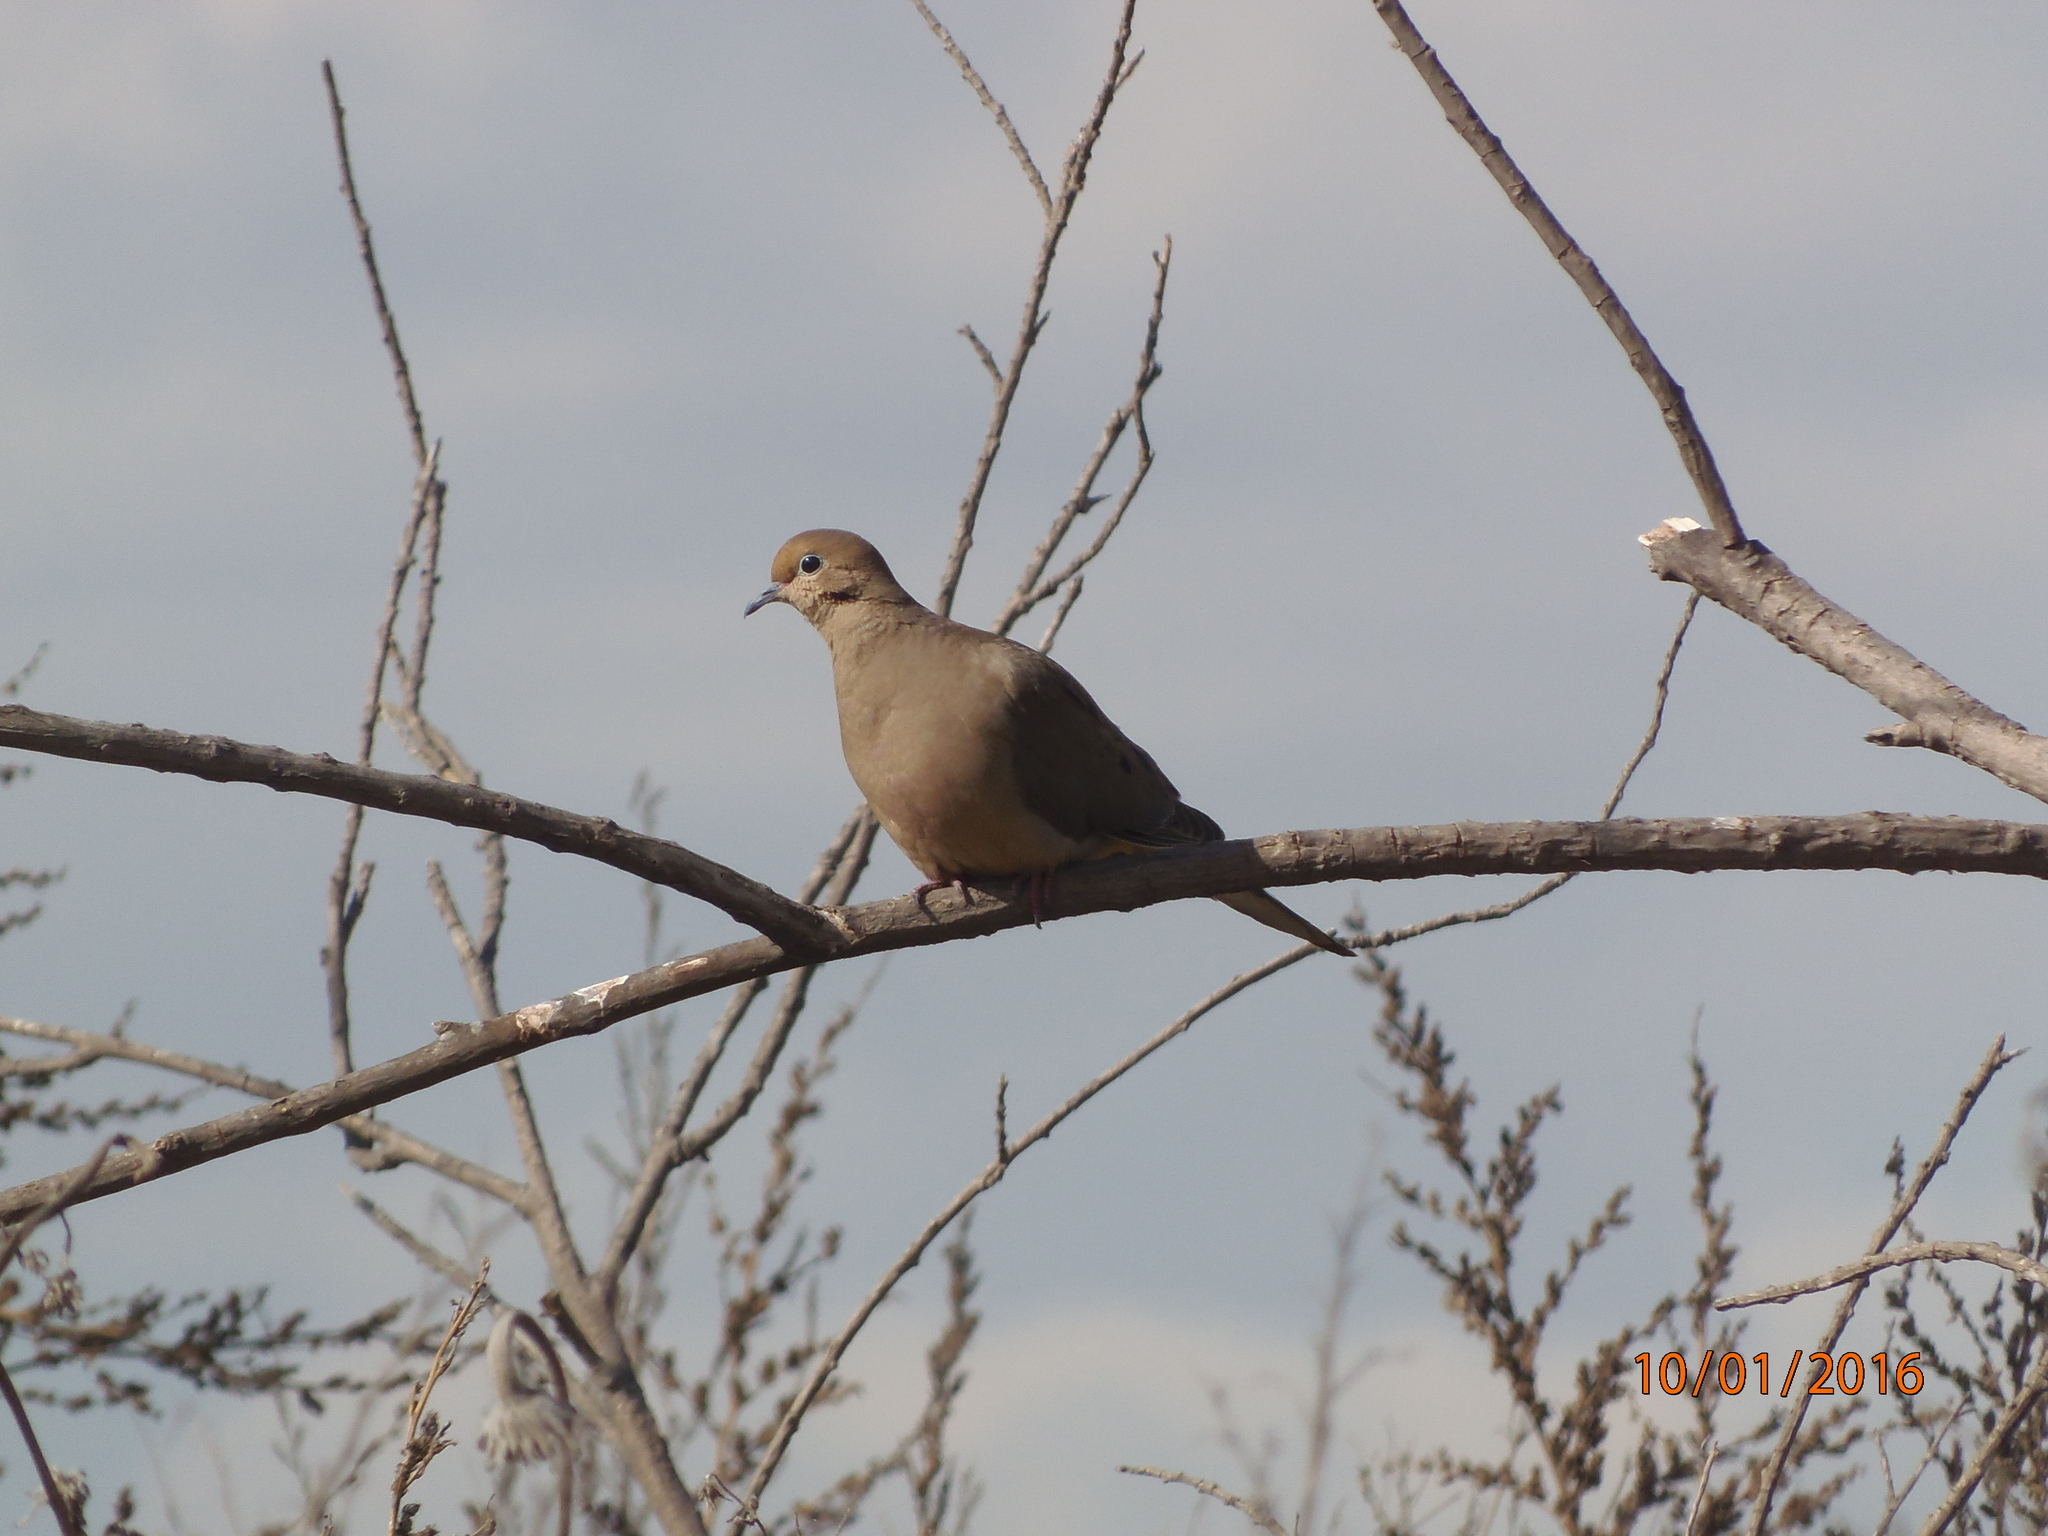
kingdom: Animalia
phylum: Chordata
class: Aves
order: Columbiformes
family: Columbidae
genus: Zenaida
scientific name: Zenaida macroura
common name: Mourning dove
